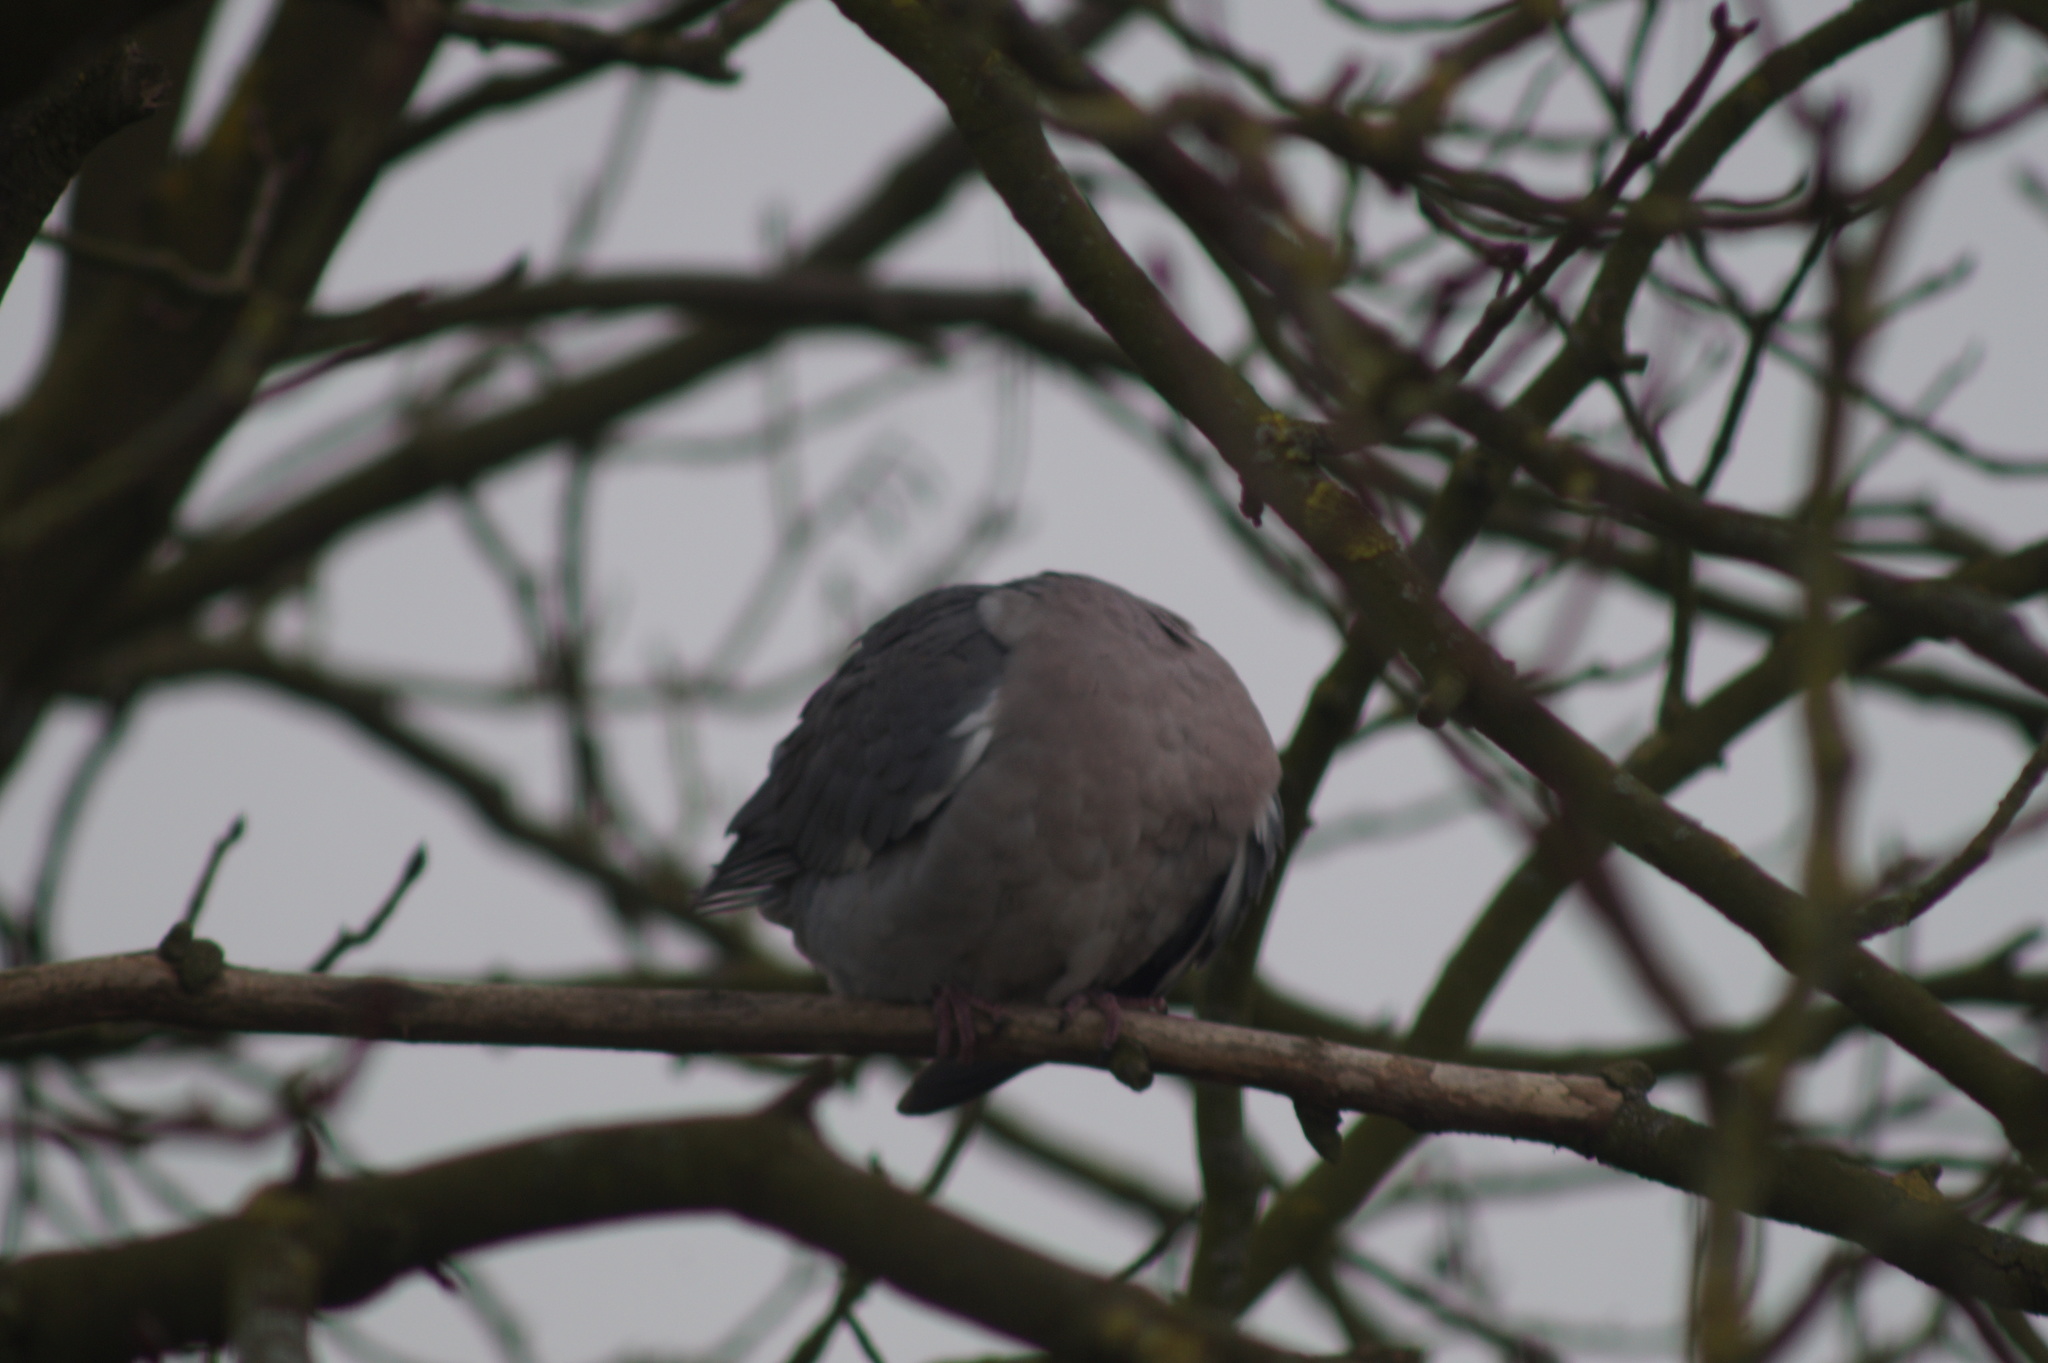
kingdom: Animalia
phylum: Chordata
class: Aves
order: Columbiformes
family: Columbidae
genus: Columba
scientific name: Columba palumbus
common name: Common wood pigeon
